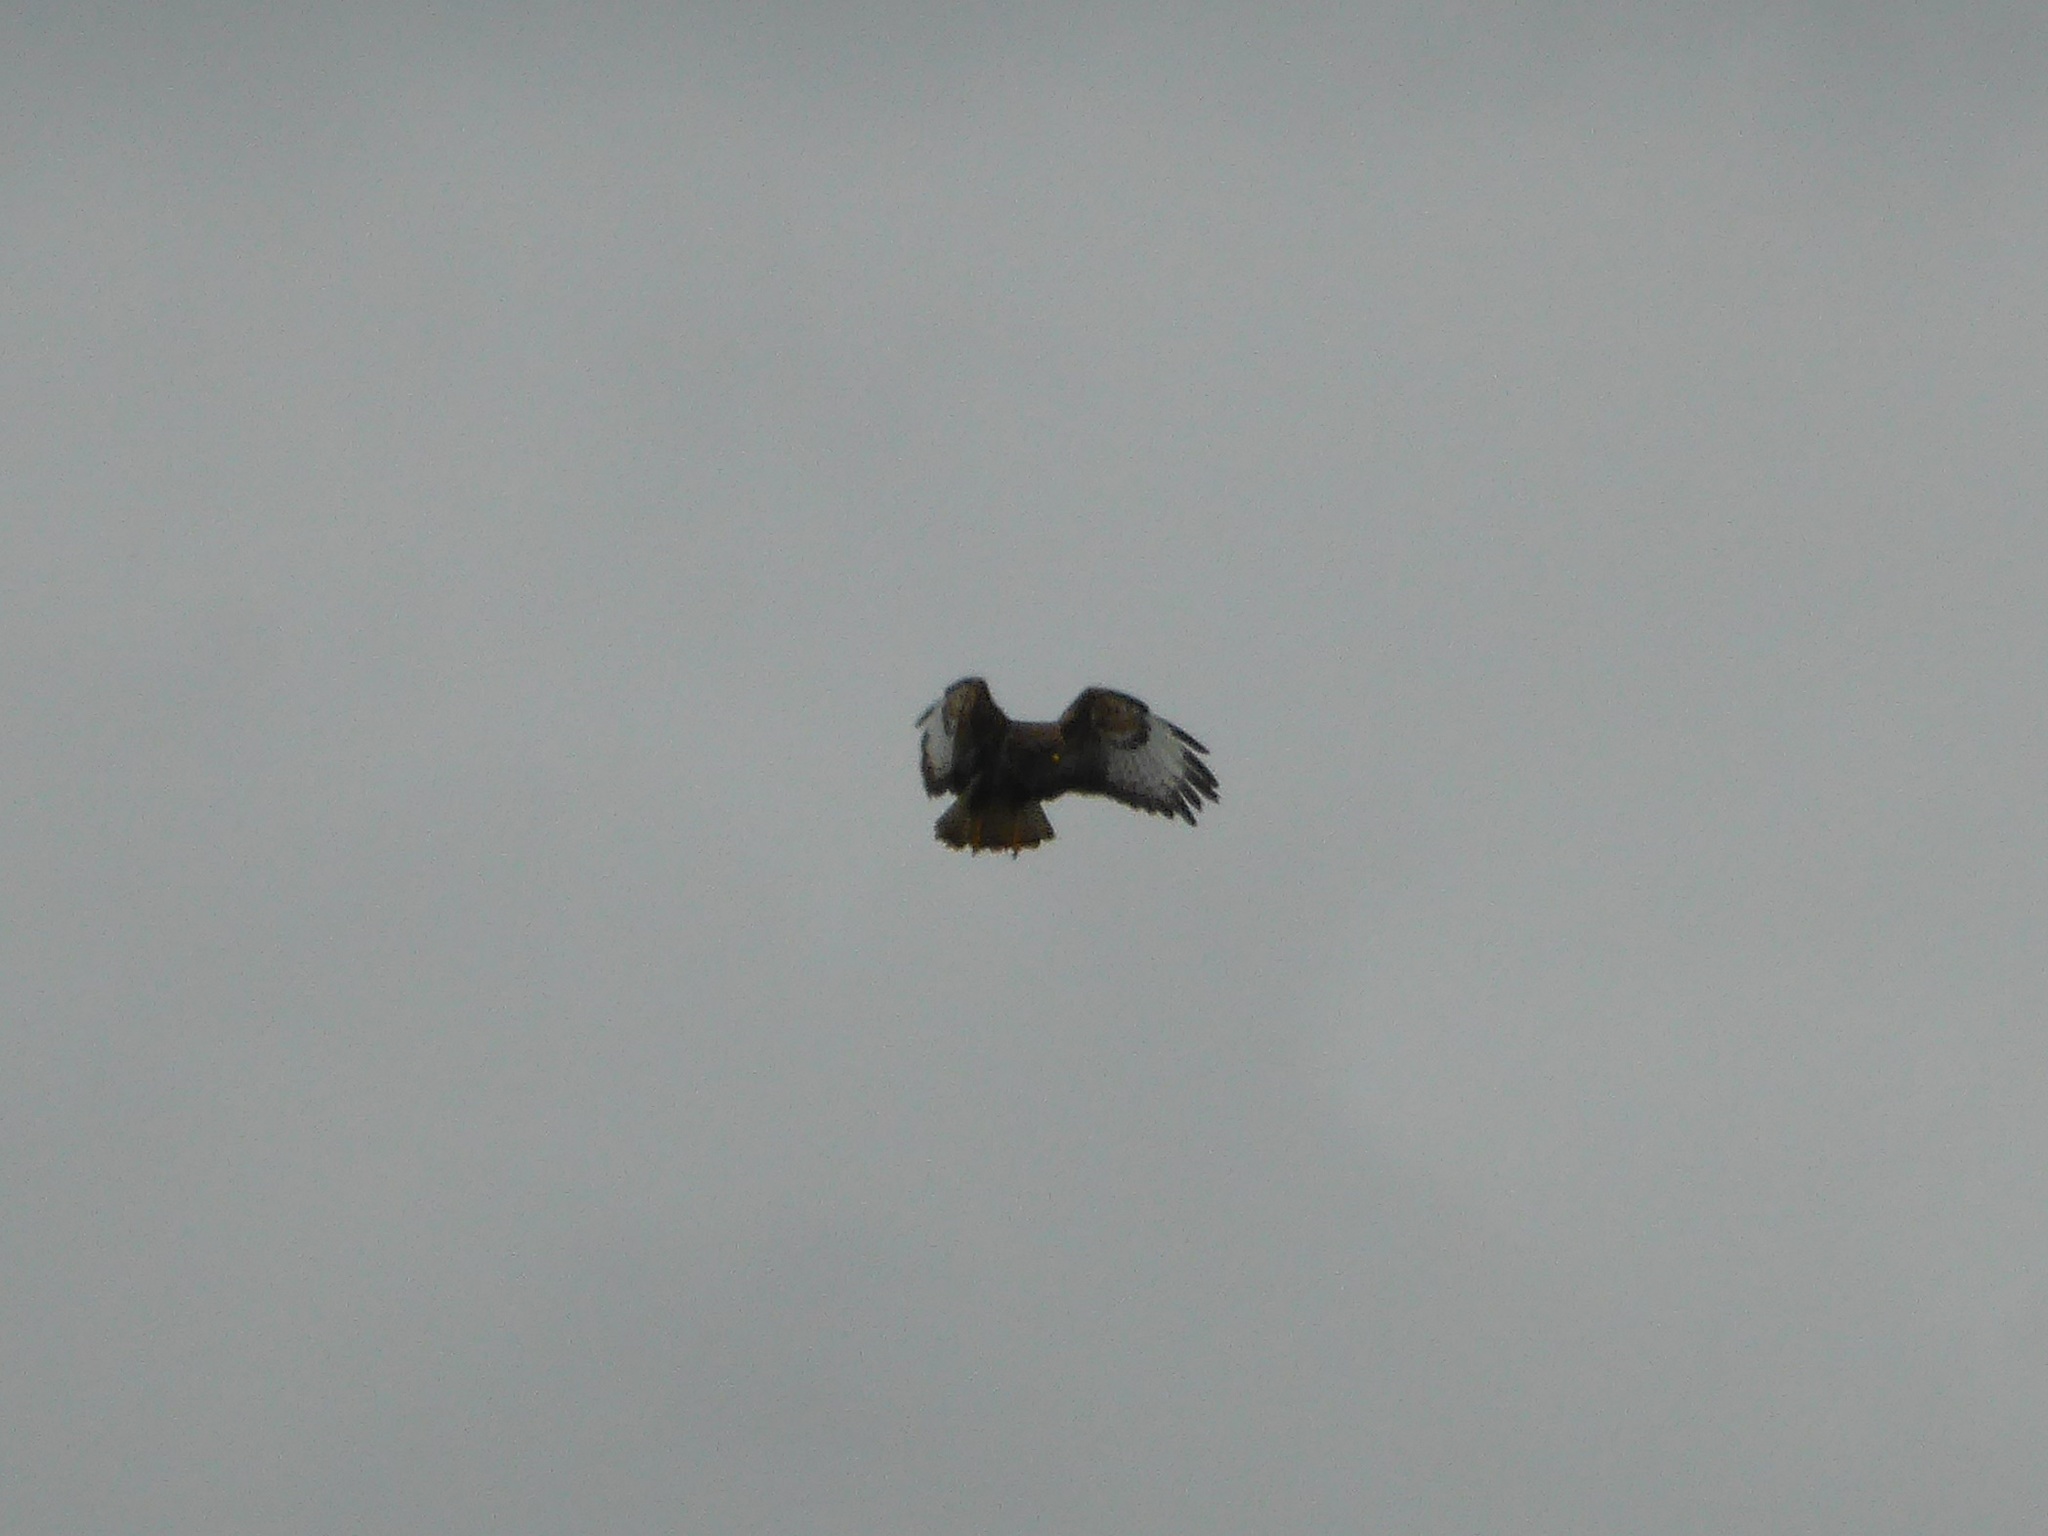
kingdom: Animalia
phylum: Chordata
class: Aves
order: Accipitriformes
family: Accipitridae
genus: Buteo
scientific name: Buteo buteo
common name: Common buzzard
